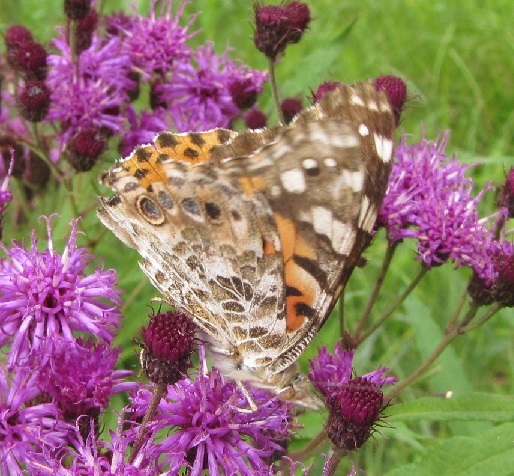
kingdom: Animalia
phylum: Arthropoda
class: Insecta
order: Lepidoptera
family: Nymphalidae
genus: Vanessa
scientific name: Vanessa cardui
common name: Painted lady
